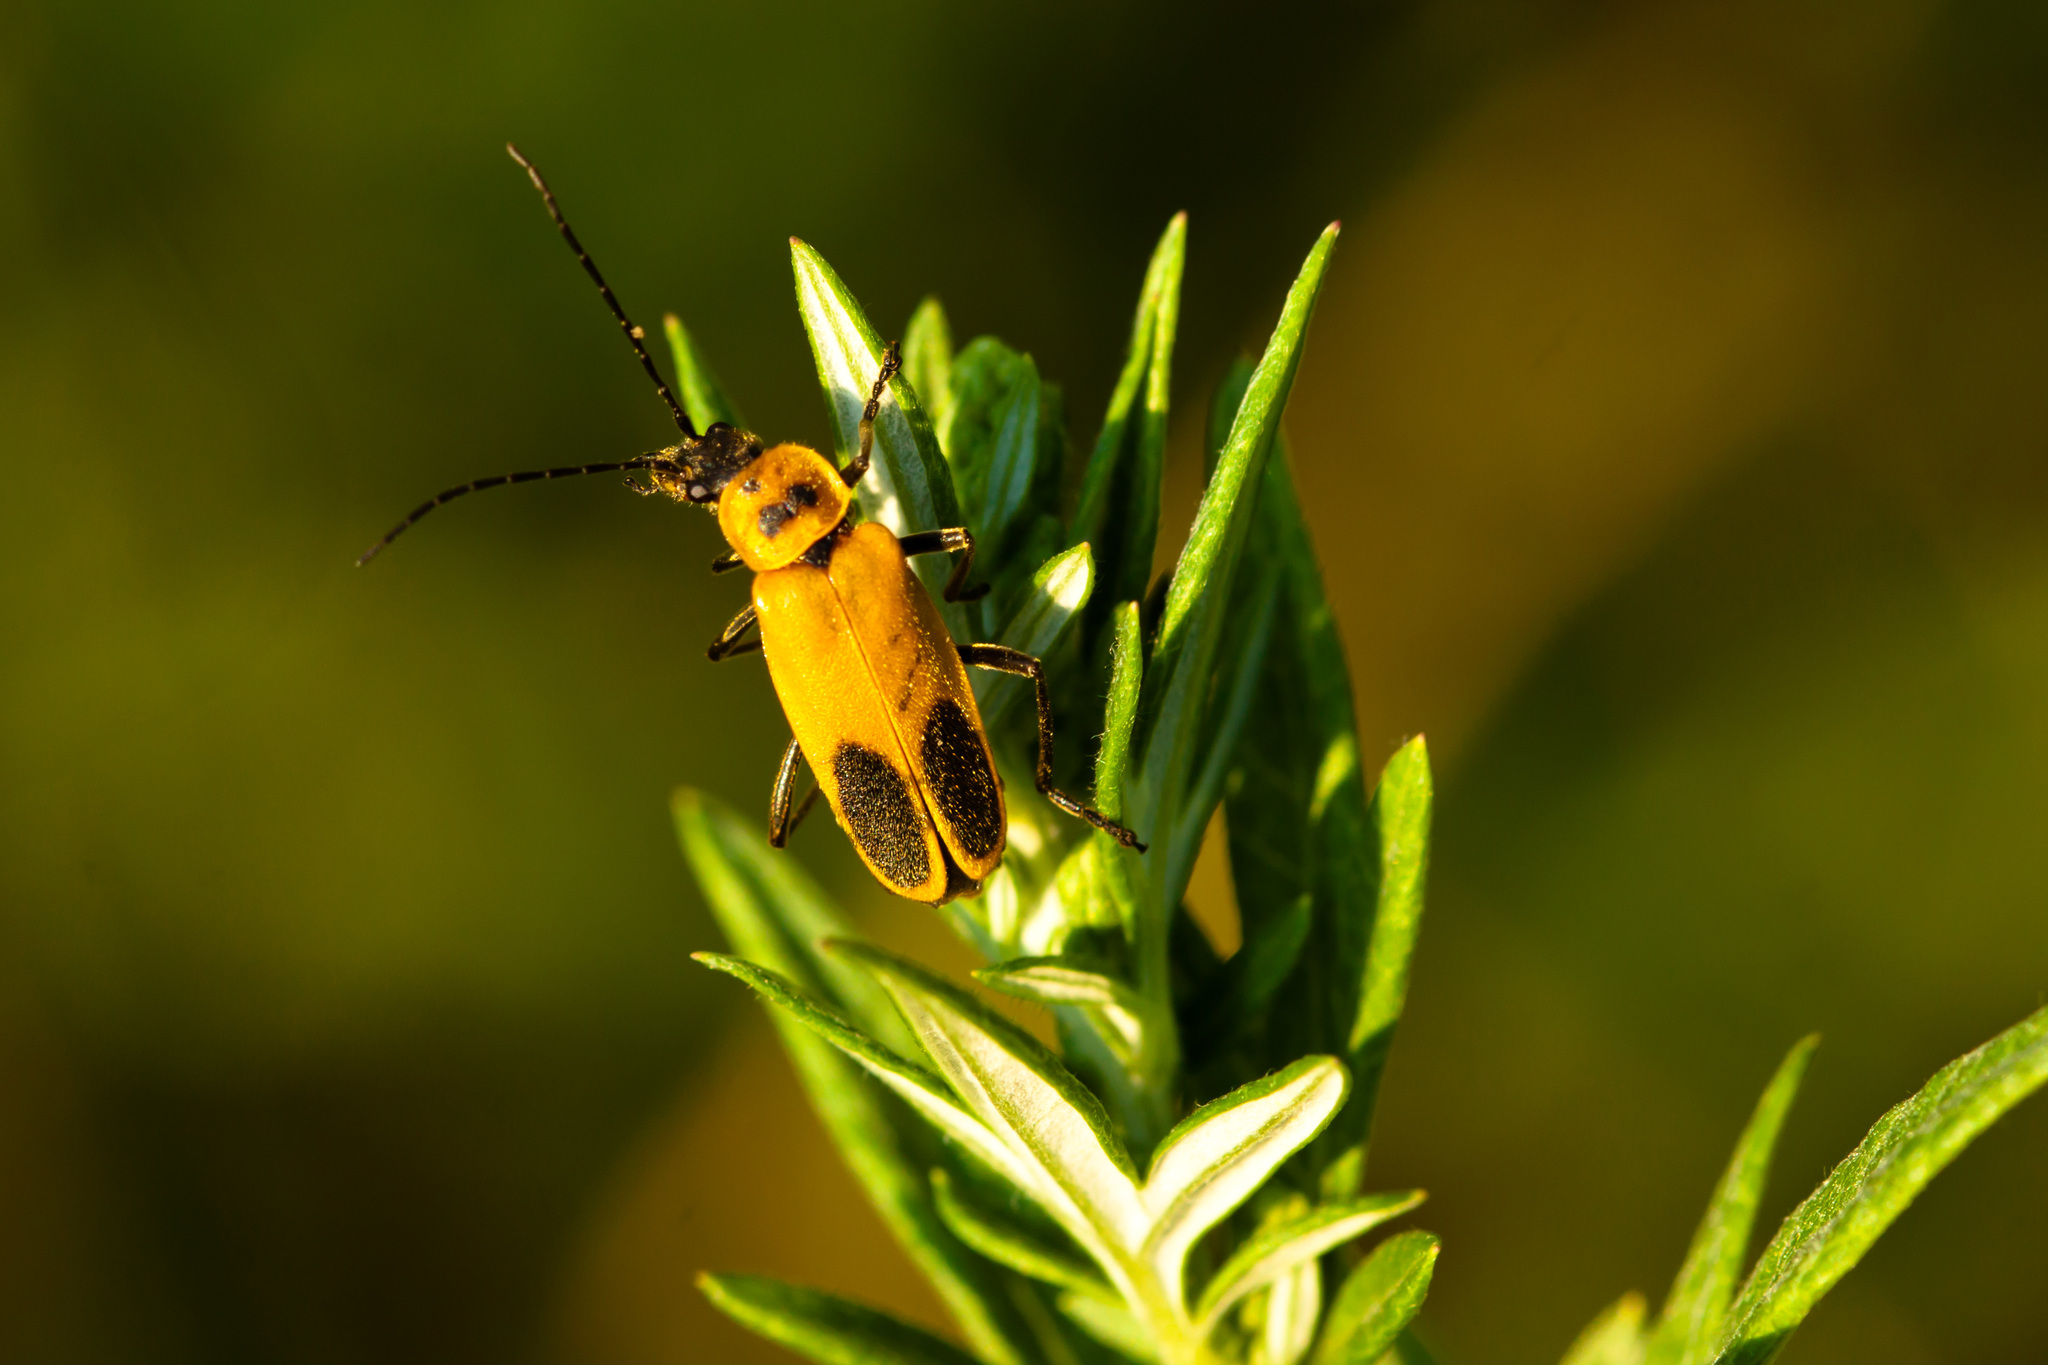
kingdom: Animalia
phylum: Arthropoda
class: Insecta
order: Coleoptera
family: Cantharidae
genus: Chauliognathus
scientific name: Chauliognathus pensylvanicus
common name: Goldenrod soldier beetle
